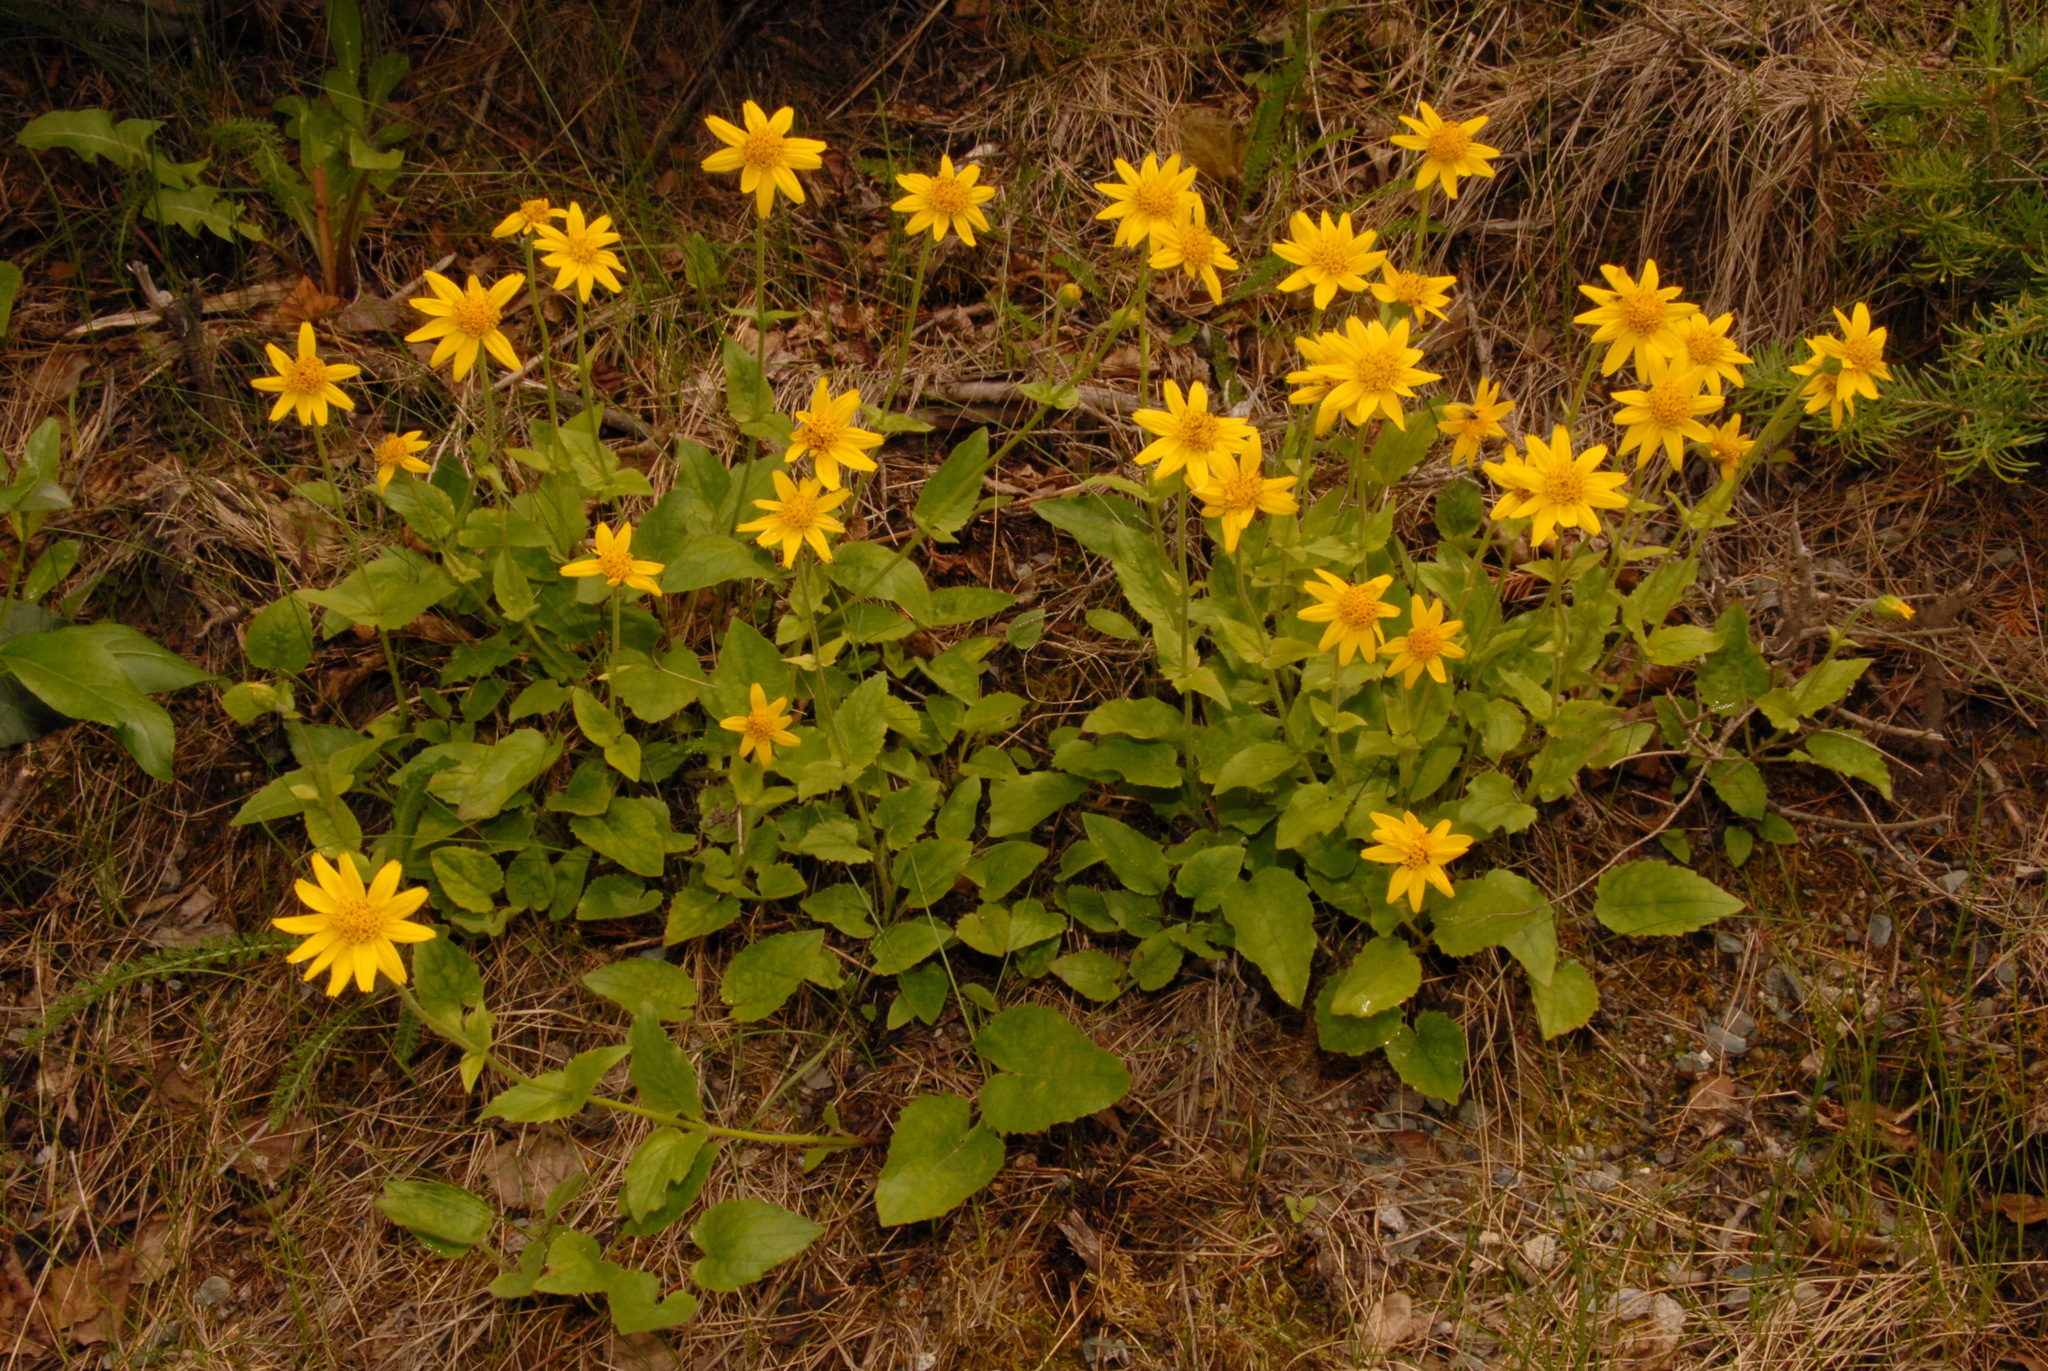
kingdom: Plantae
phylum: Tracheophyta
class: Magnoliopsida
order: Asterales
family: Asteraceae
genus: Arnica
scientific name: Arnica cordifolia
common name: Heart-leaf arnica
